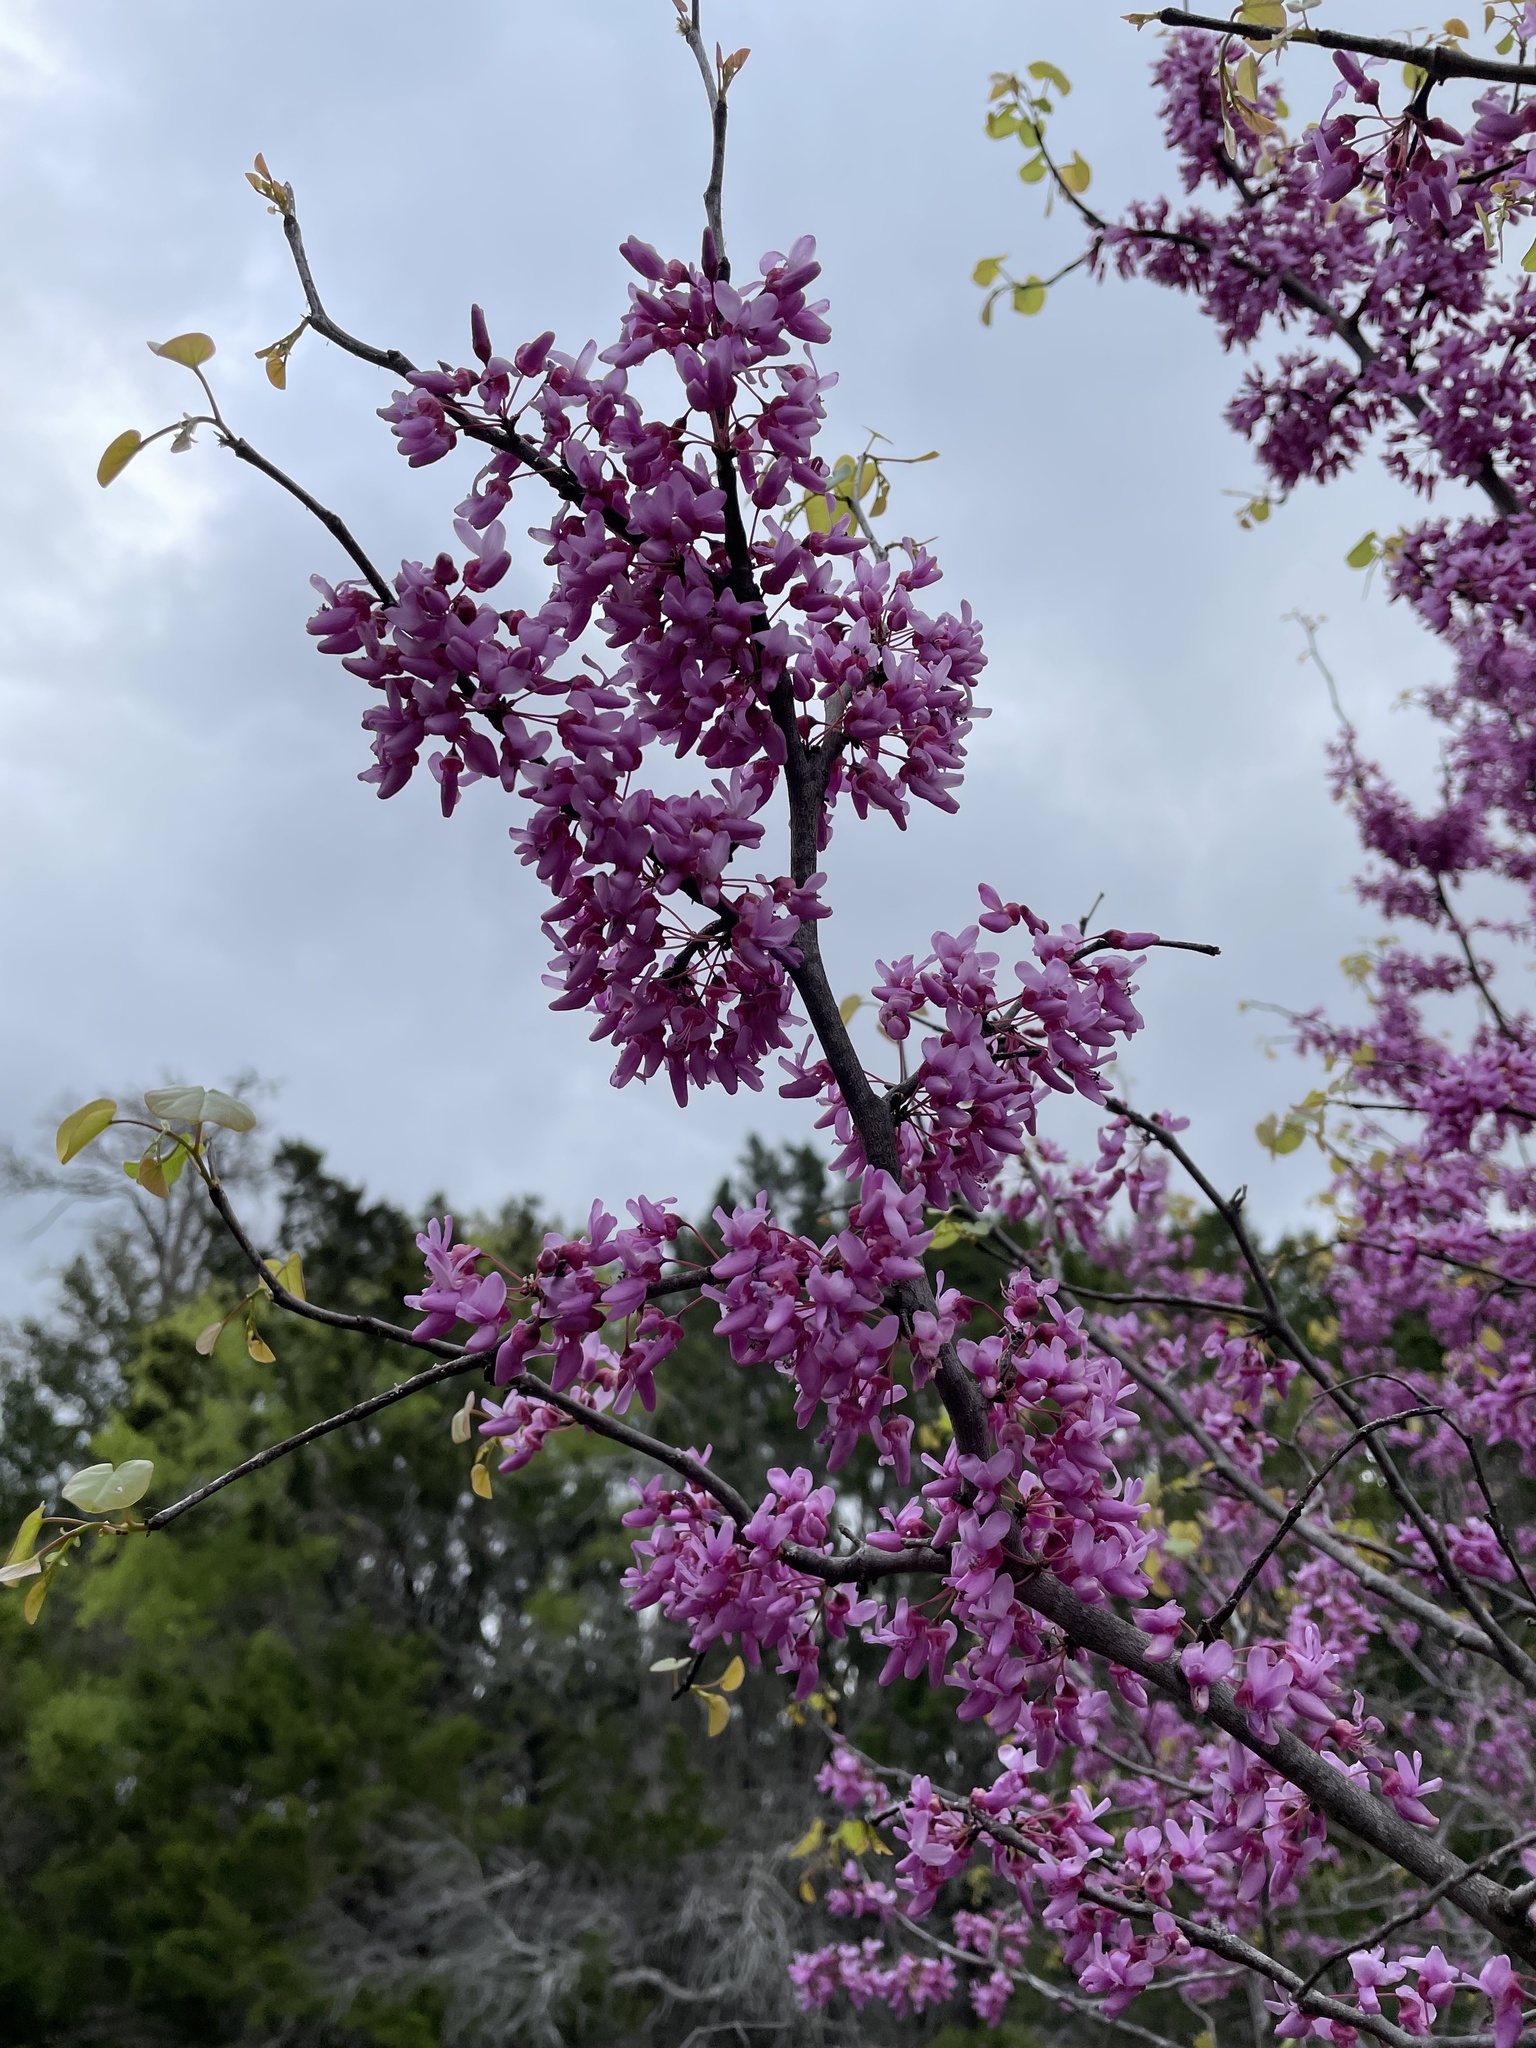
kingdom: Plantae
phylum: Tracheophyta
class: Magnoliopsida
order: Fabales
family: Fabaceae
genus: Cercis
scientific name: Cercis canadensis
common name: Eastern redbud
